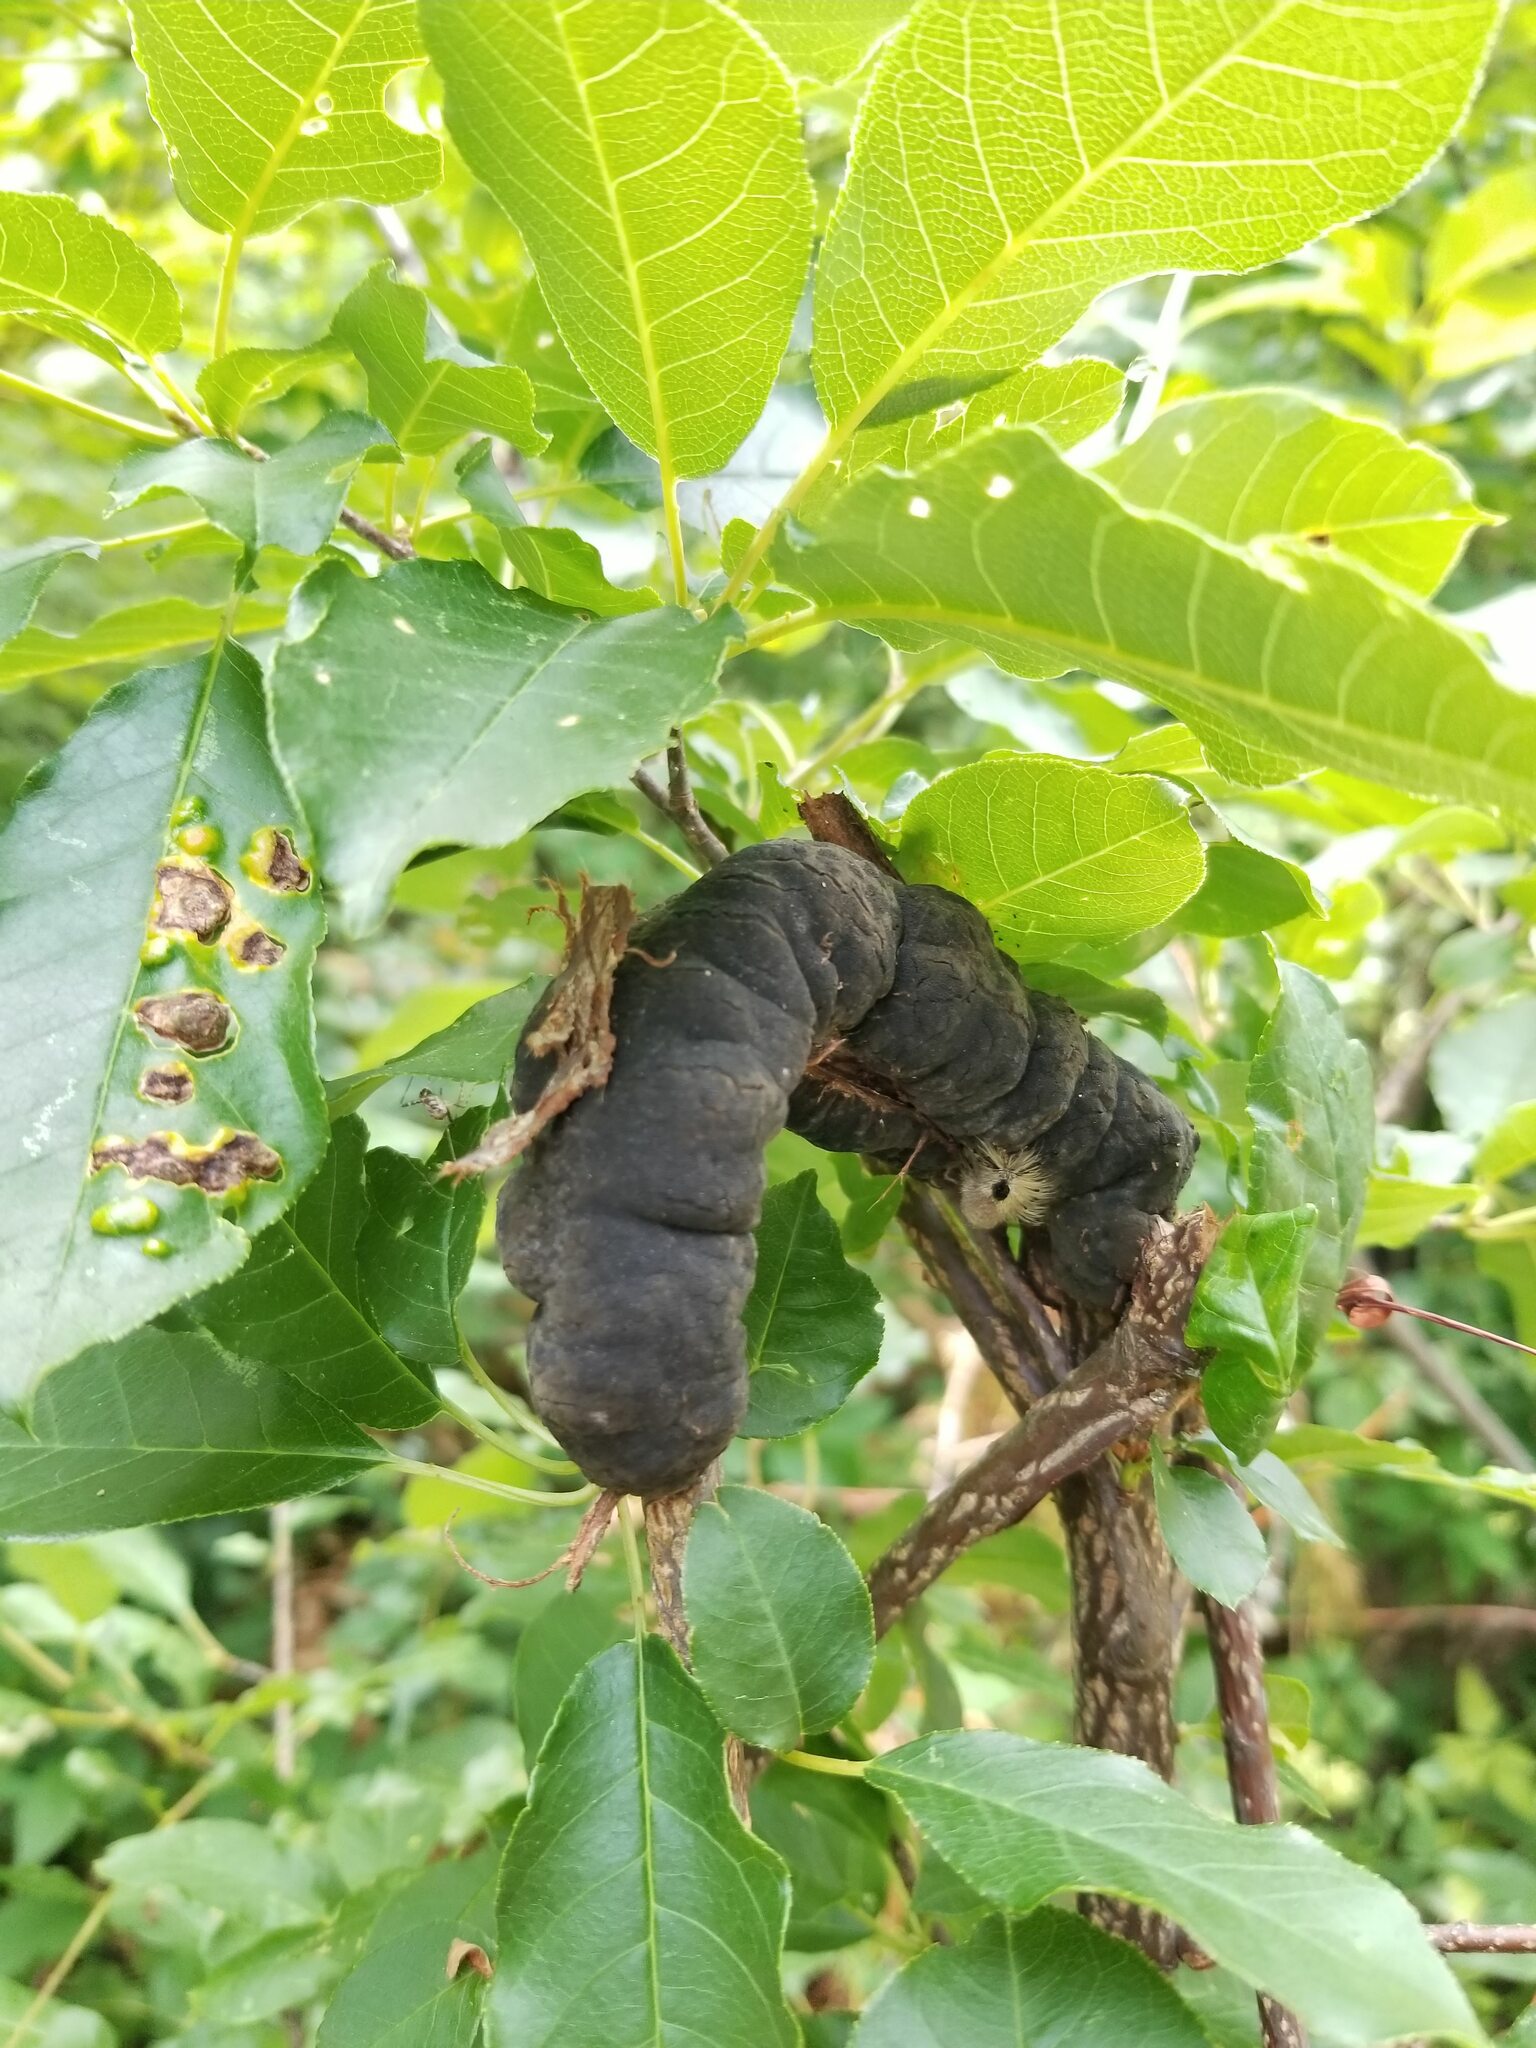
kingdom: Fungi
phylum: Ascomycota
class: Dothideomycetes
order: Venturiales
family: Venturiaceae
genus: Apiosporina
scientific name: Apiosporina morbosa
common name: Black knot
